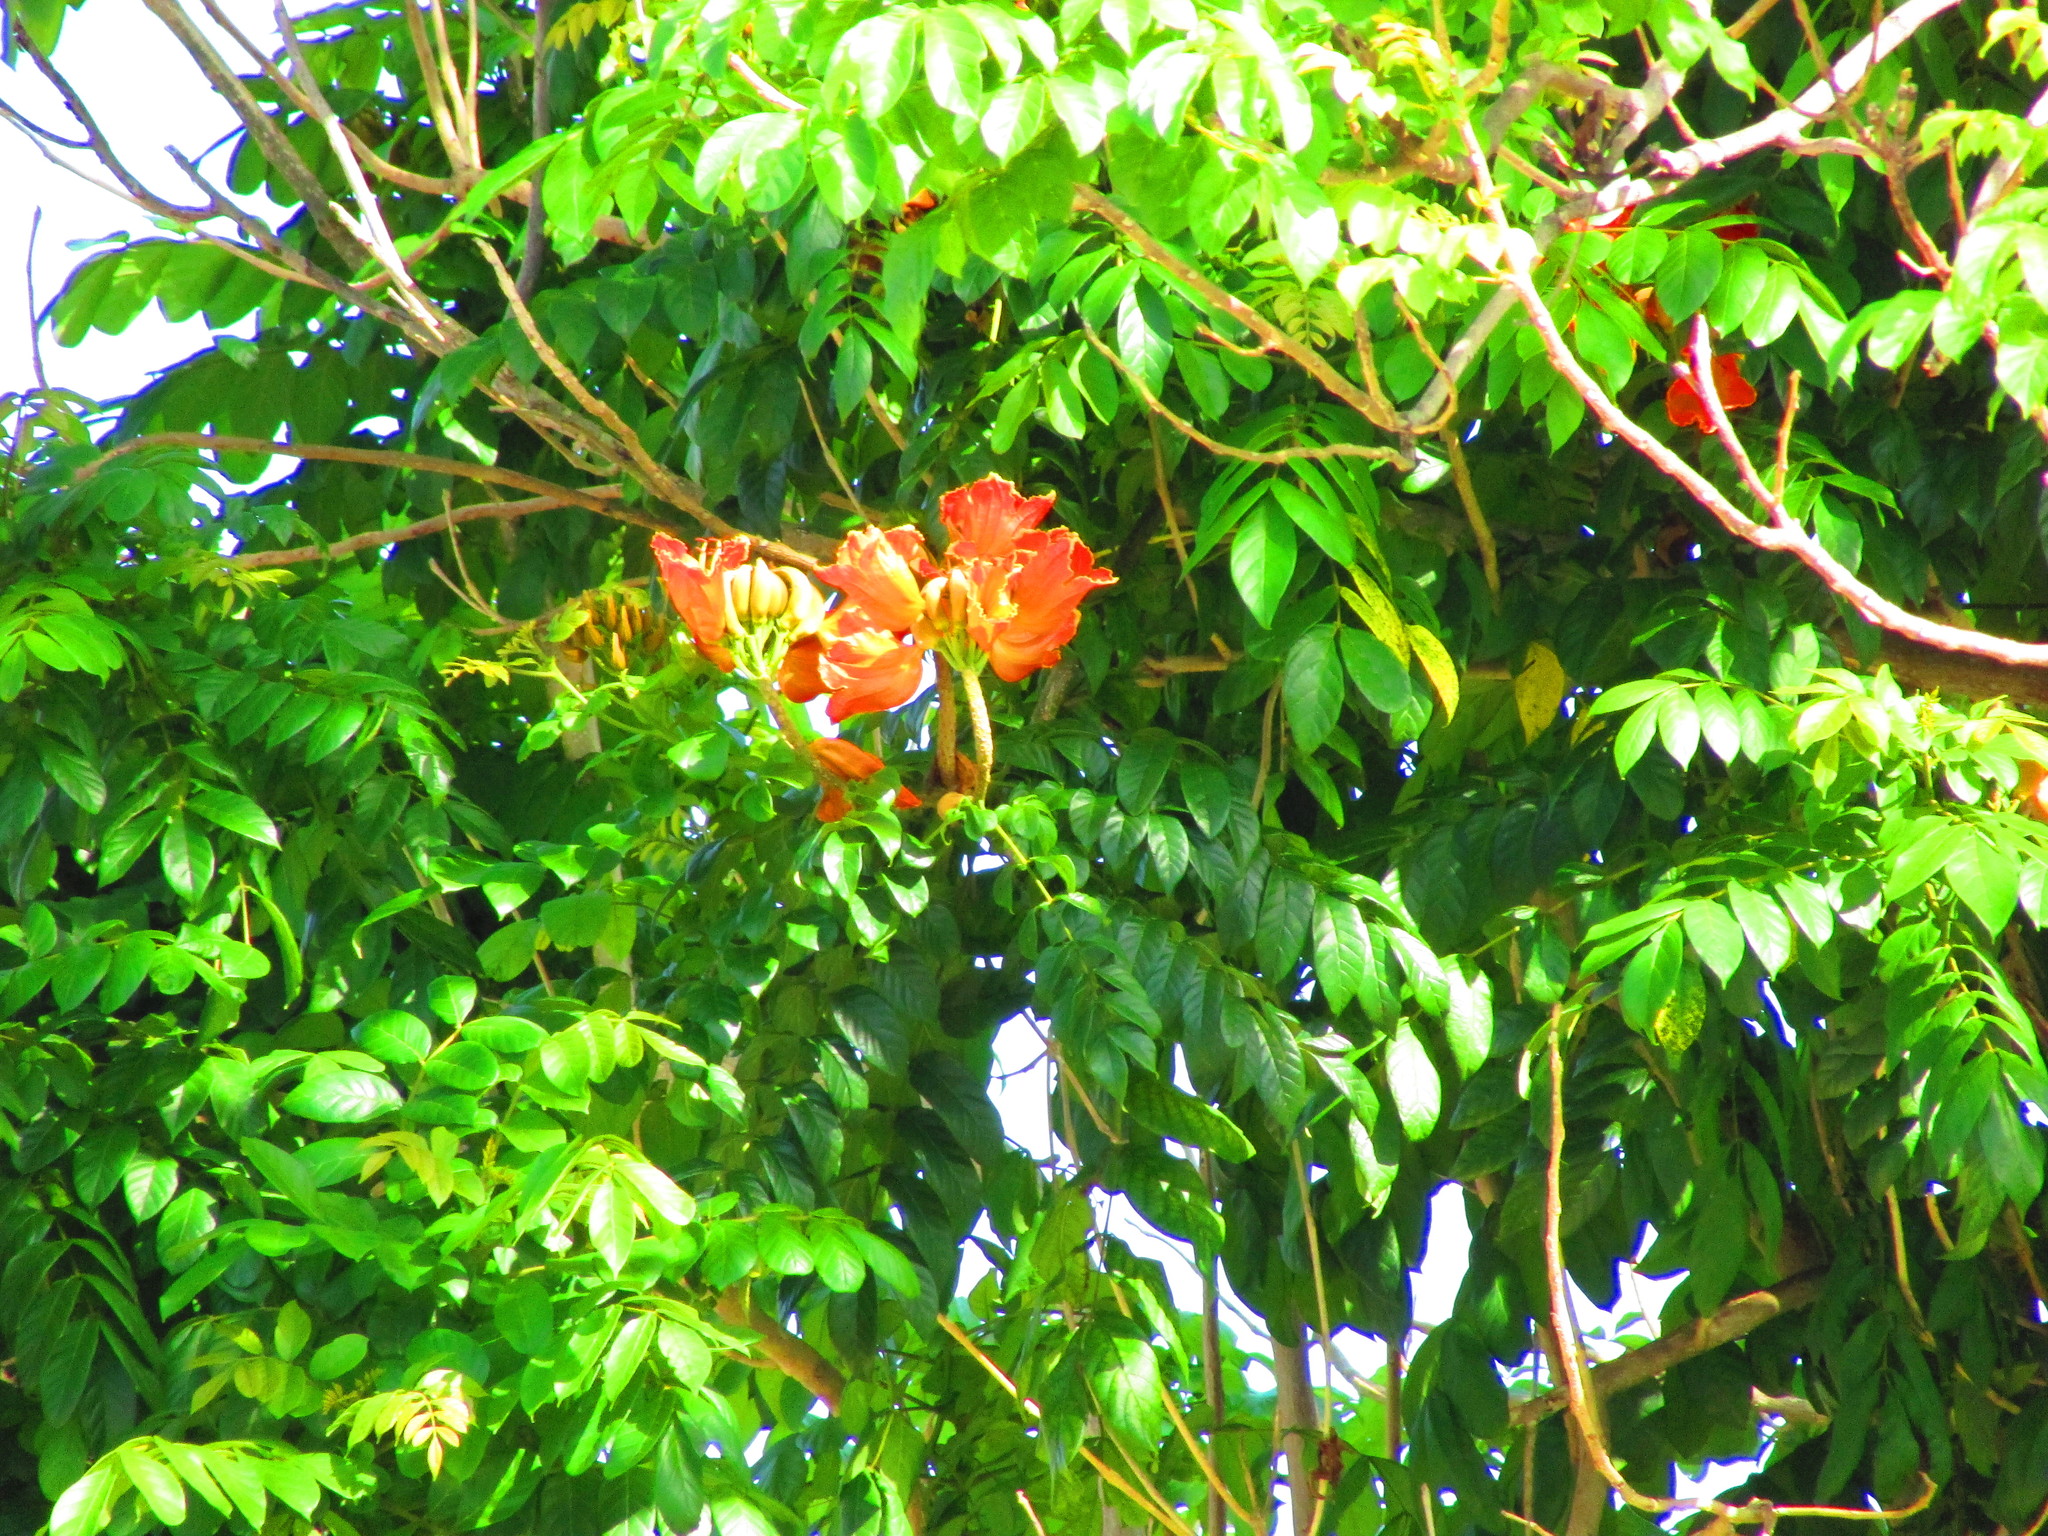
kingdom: Plantae
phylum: Tracheophyta
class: Magnoliopsida
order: Lamiales
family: Bignoniaceae
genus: Spathodea
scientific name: Spathodea campanulata
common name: African tuliptree
